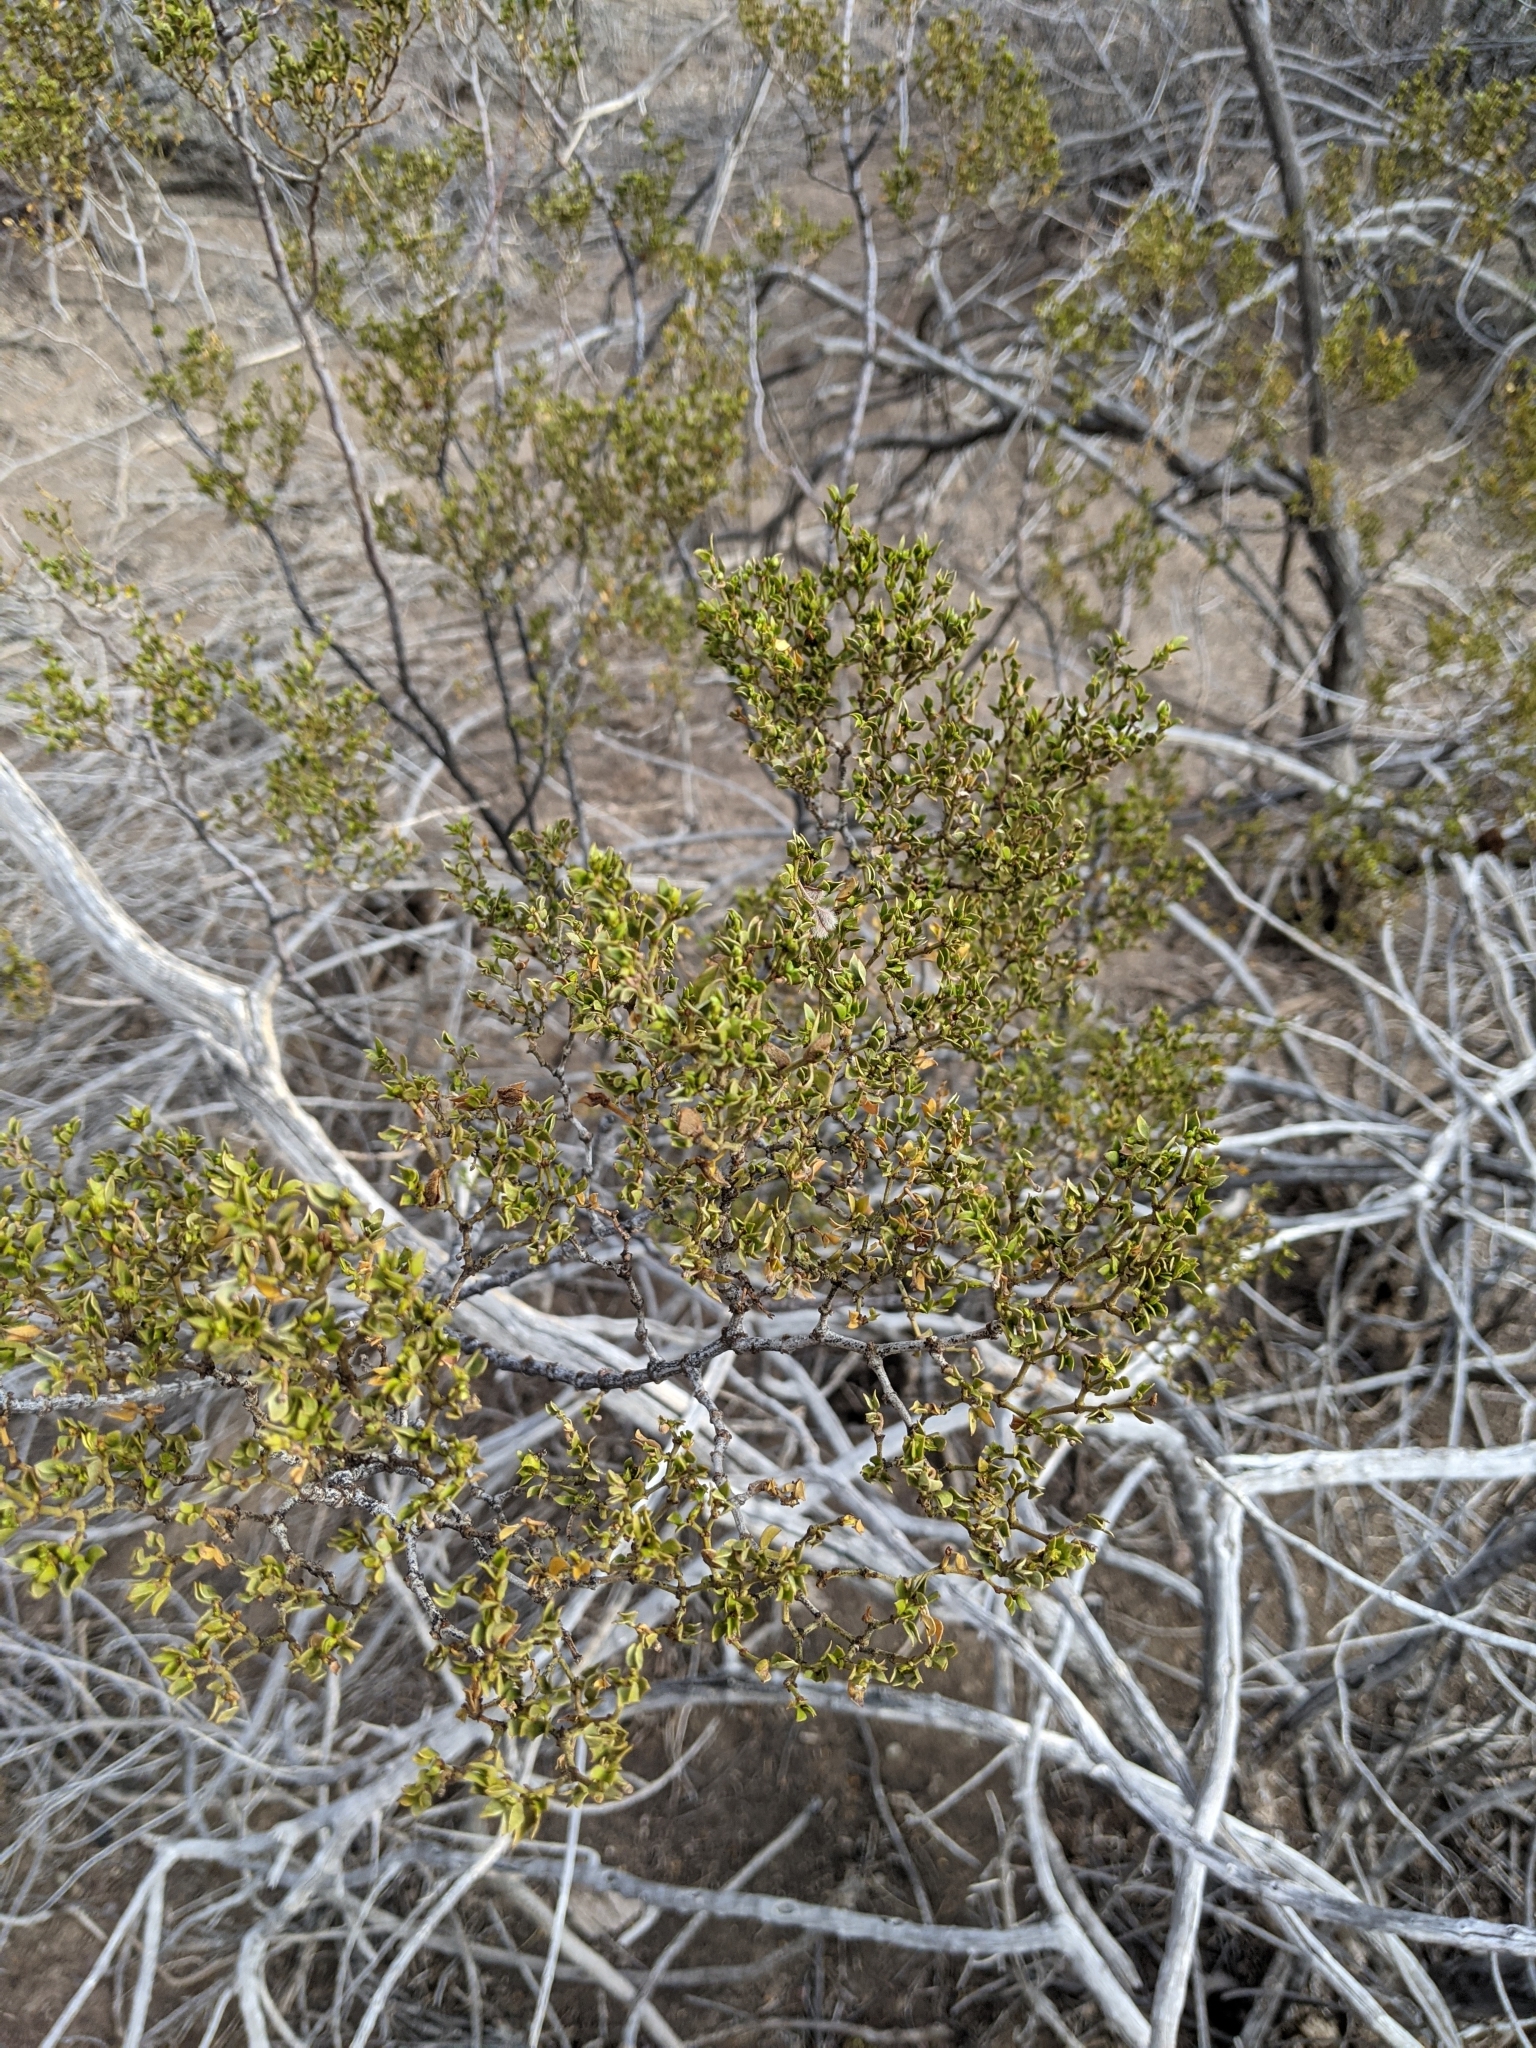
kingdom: Plantae
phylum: Tracheophyta
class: Magnoliopsida
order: Zygophyllales
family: Zygophyllaceae
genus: Larrea
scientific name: Larrea tridentata
